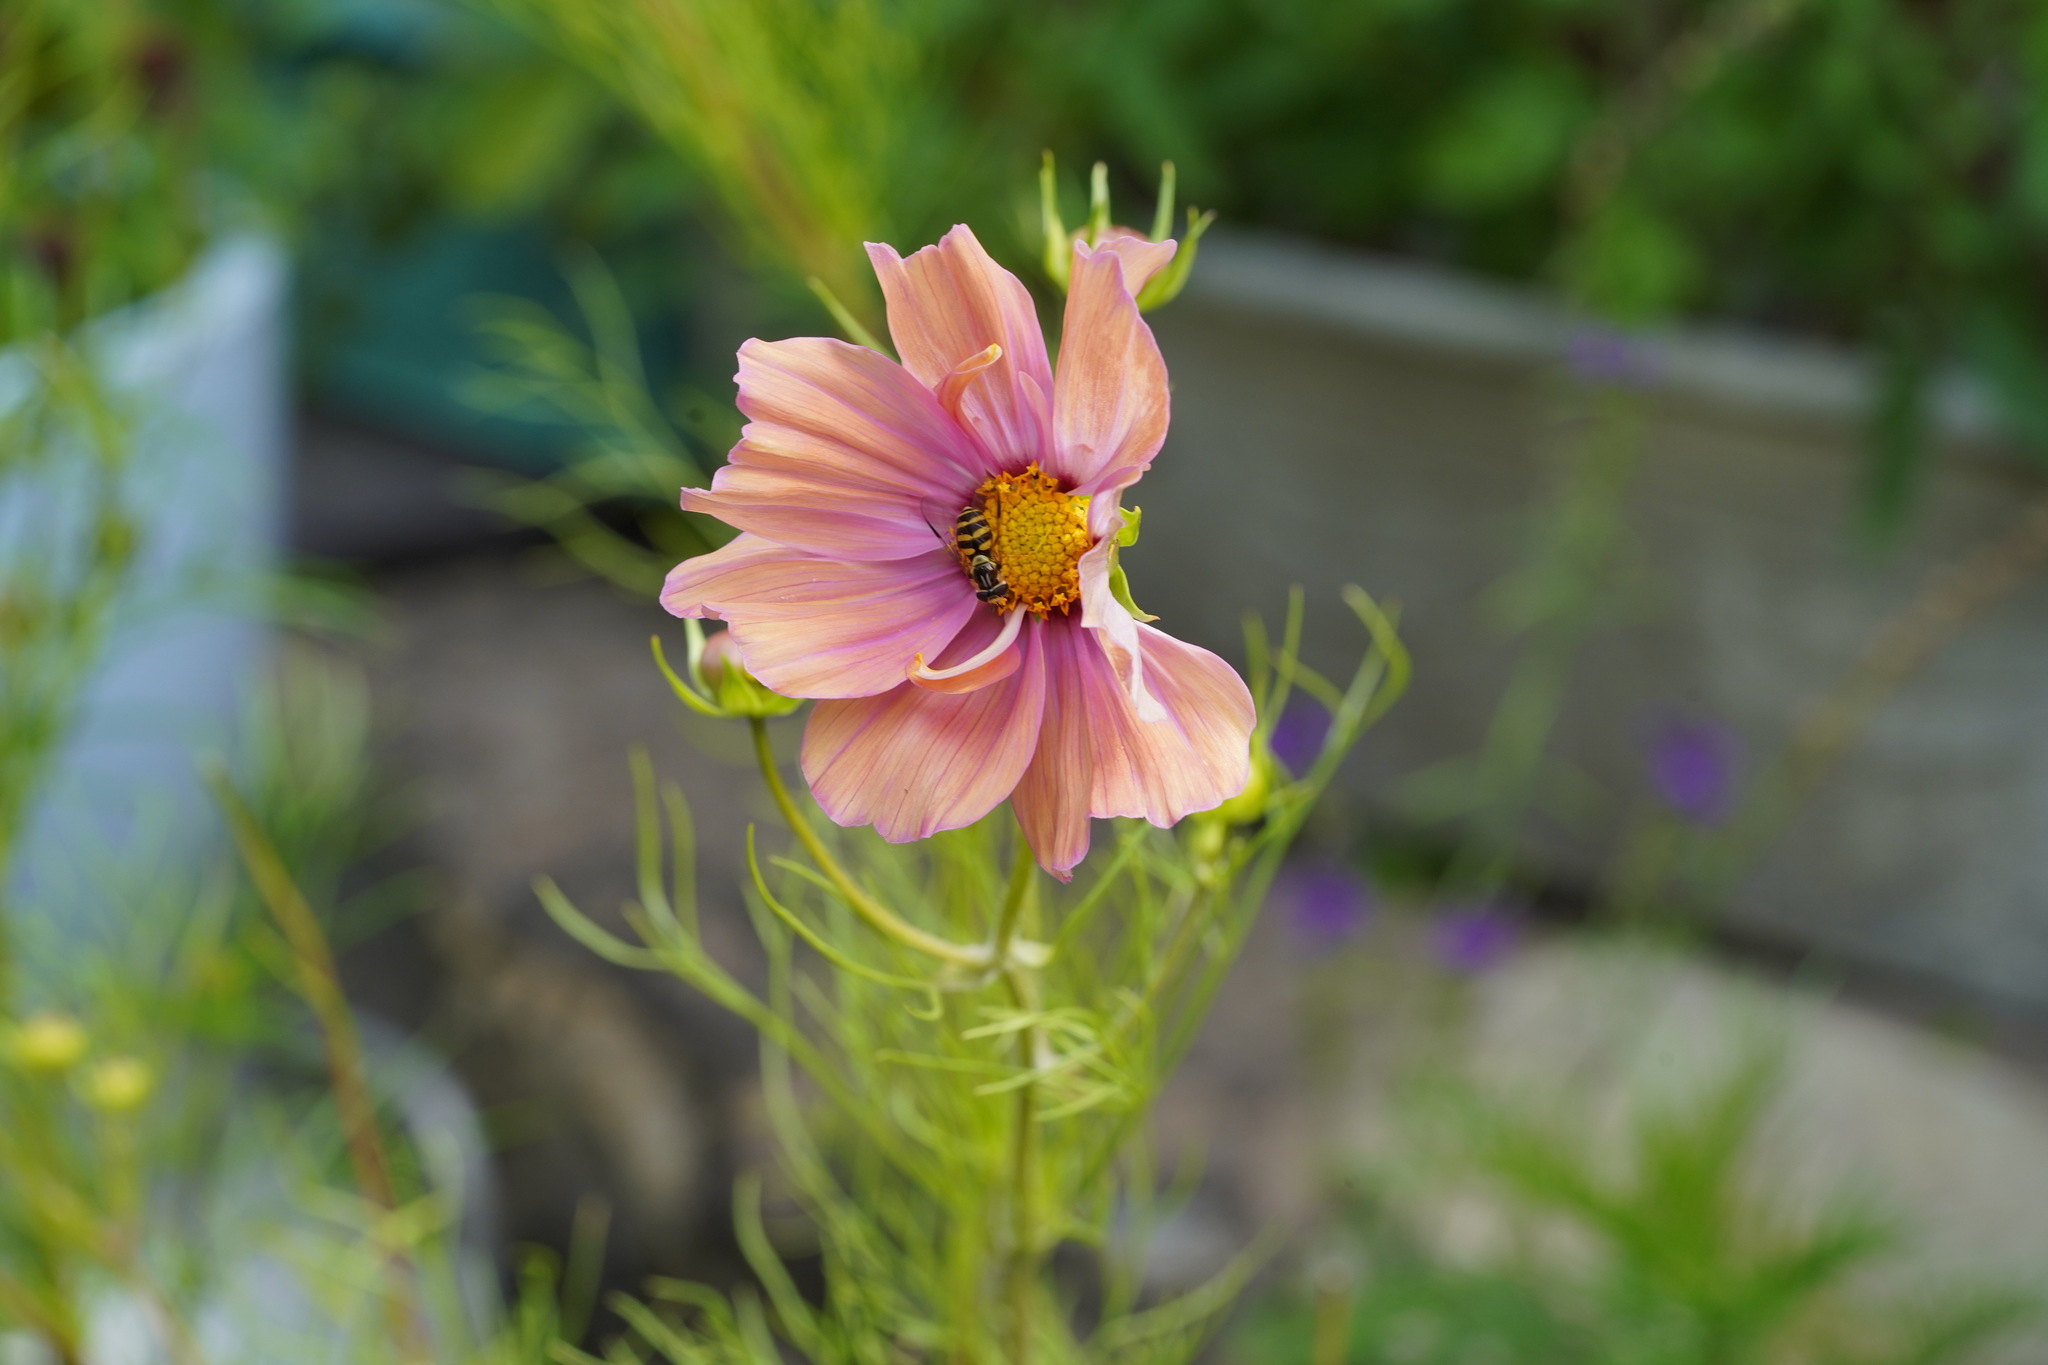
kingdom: Animalia
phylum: Arthropoda
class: Insecta
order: Diptera
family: Syrphidae
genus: Dasysyrphus
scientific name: Dasysyrphus albostriatus
